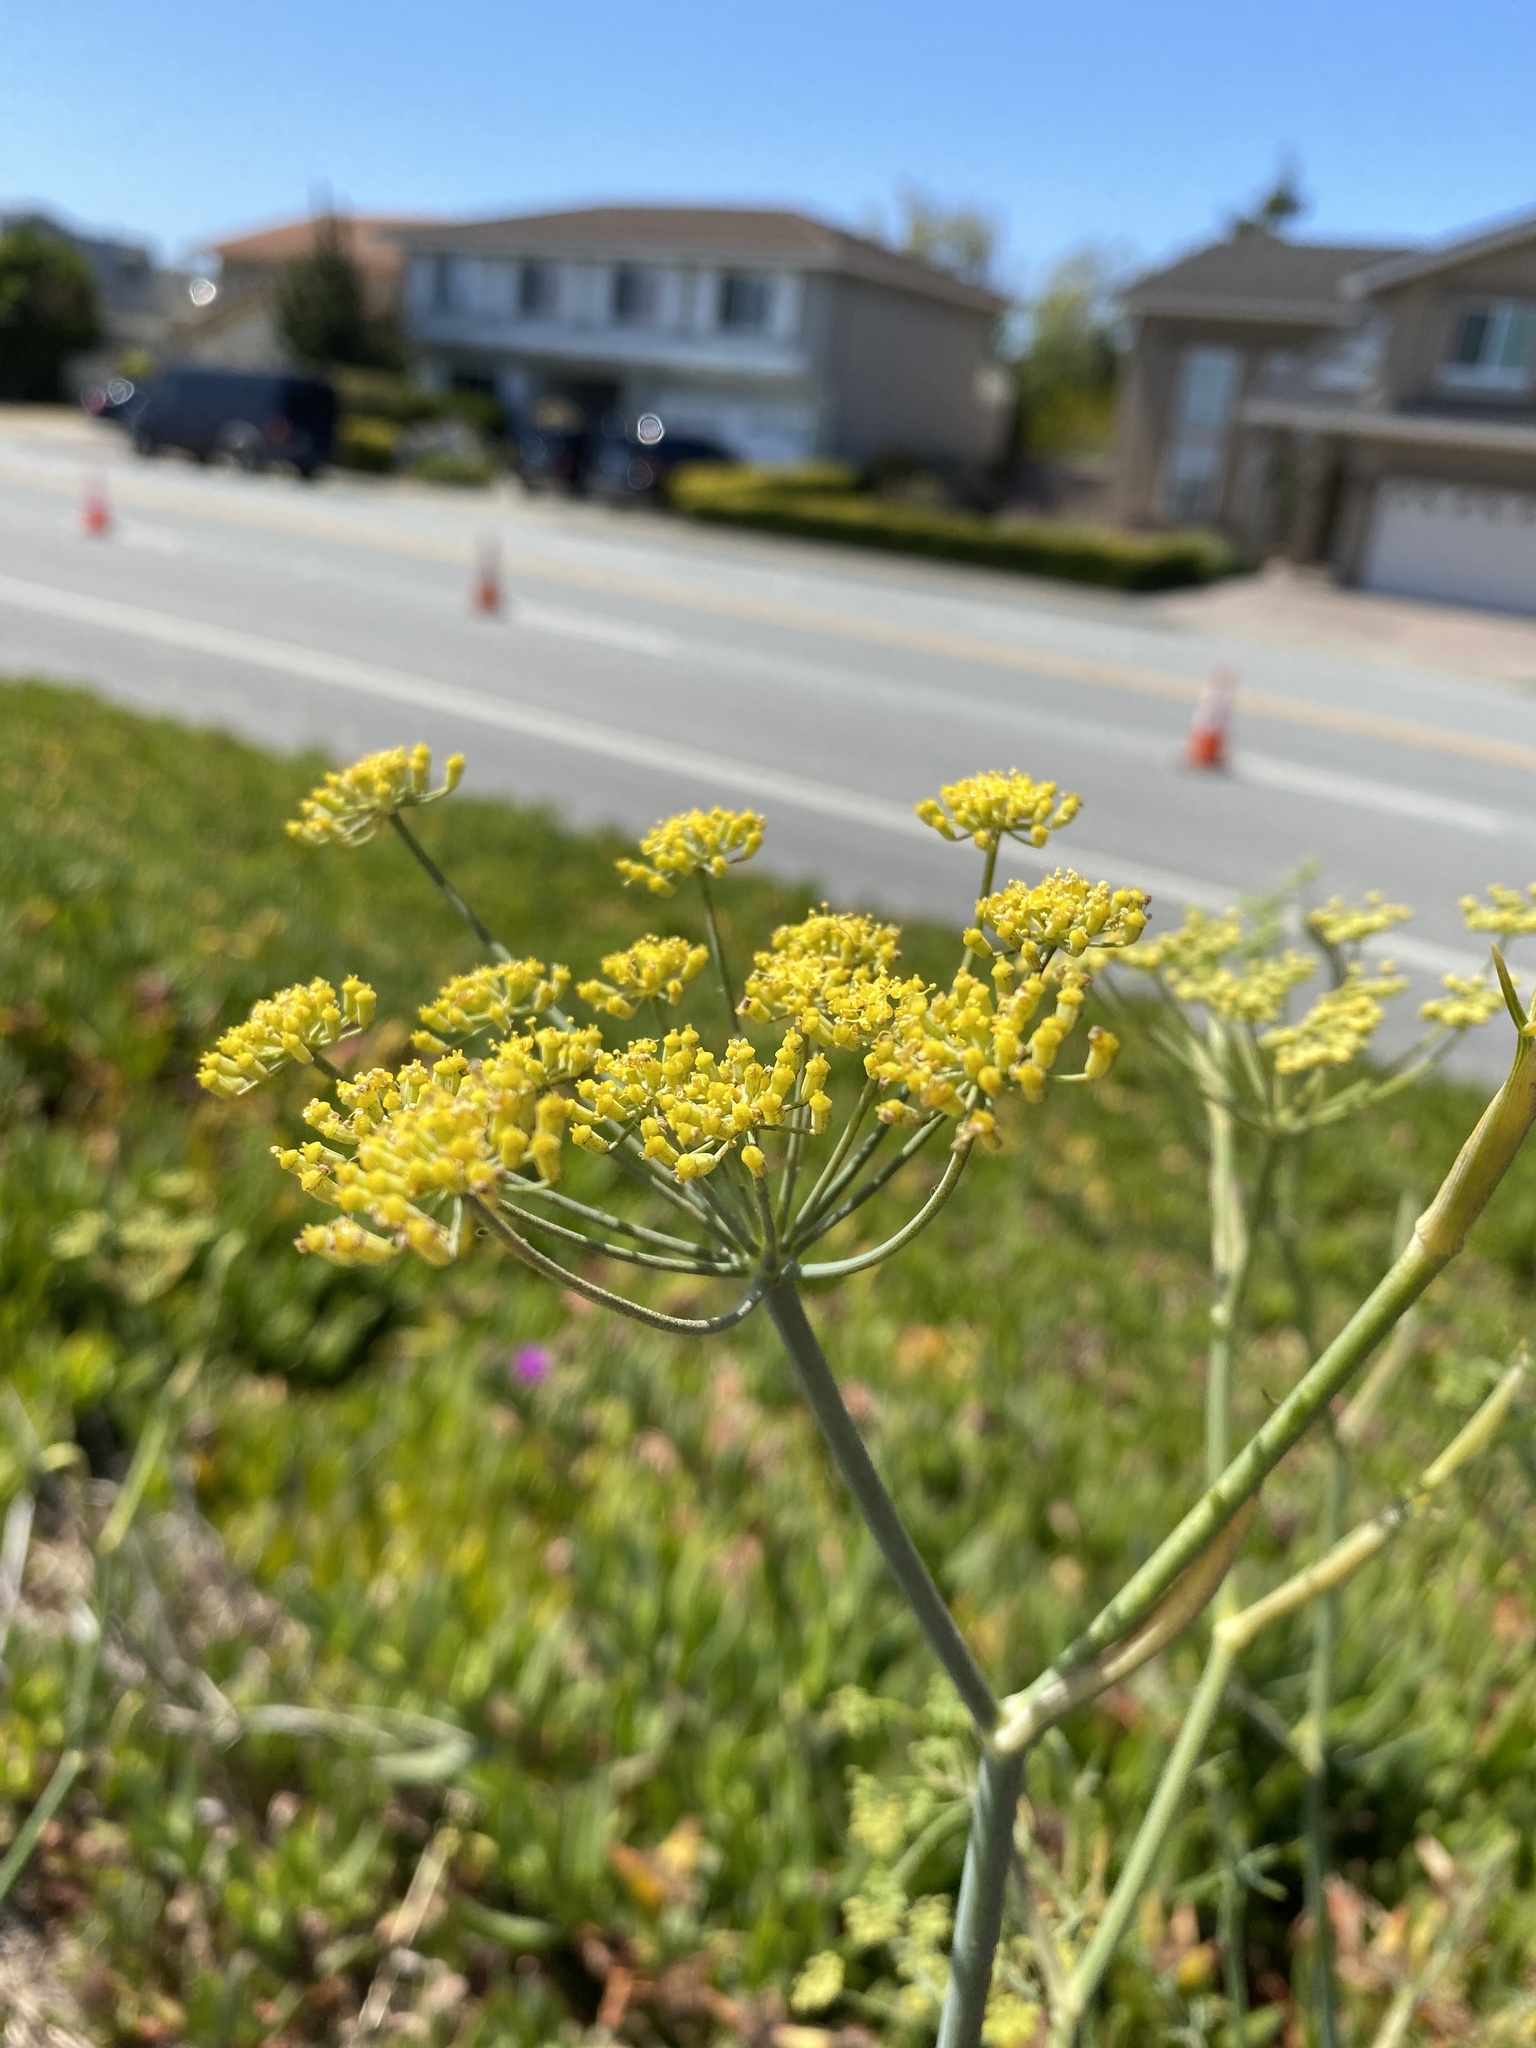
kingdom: Plantae
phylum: Tracheophyta
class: Magnoliopsida
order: Apiales
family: Apiaceae
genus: Foeniculum
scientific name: Foeniculum vulgare
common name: Fennel
